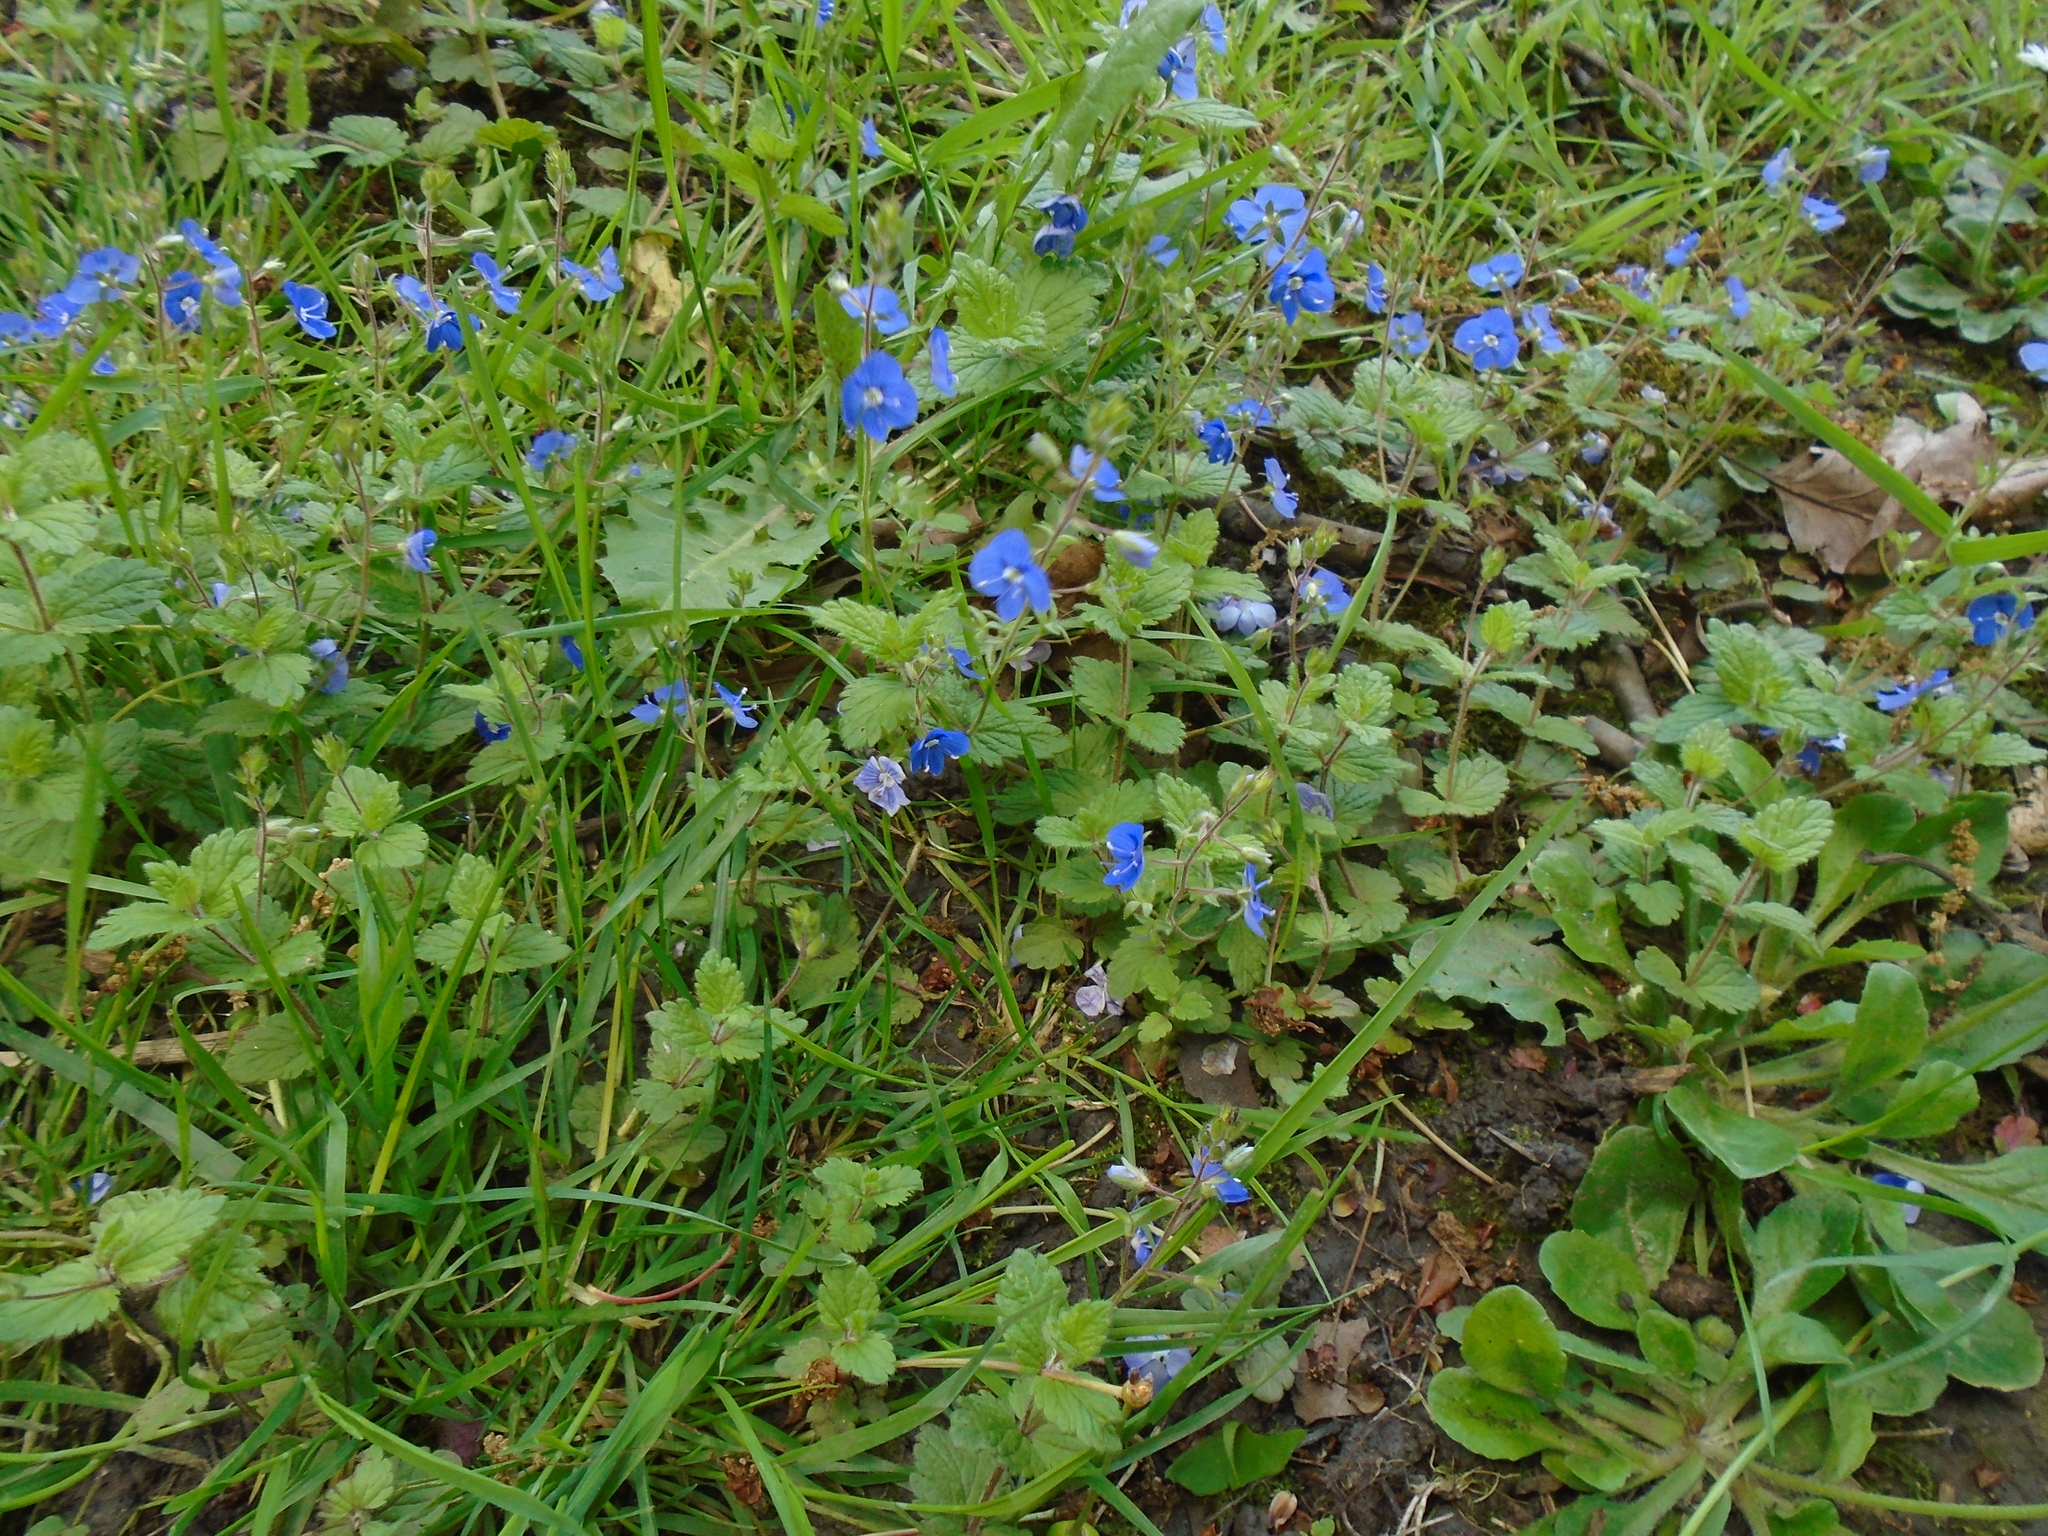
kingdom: Plantae
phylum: Tracheophyta
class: Magnoliopsida
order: Lamiales
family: Plantaginaceae
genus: Veronica
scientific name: Veronica chamaedrys
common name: Germander speedwell
